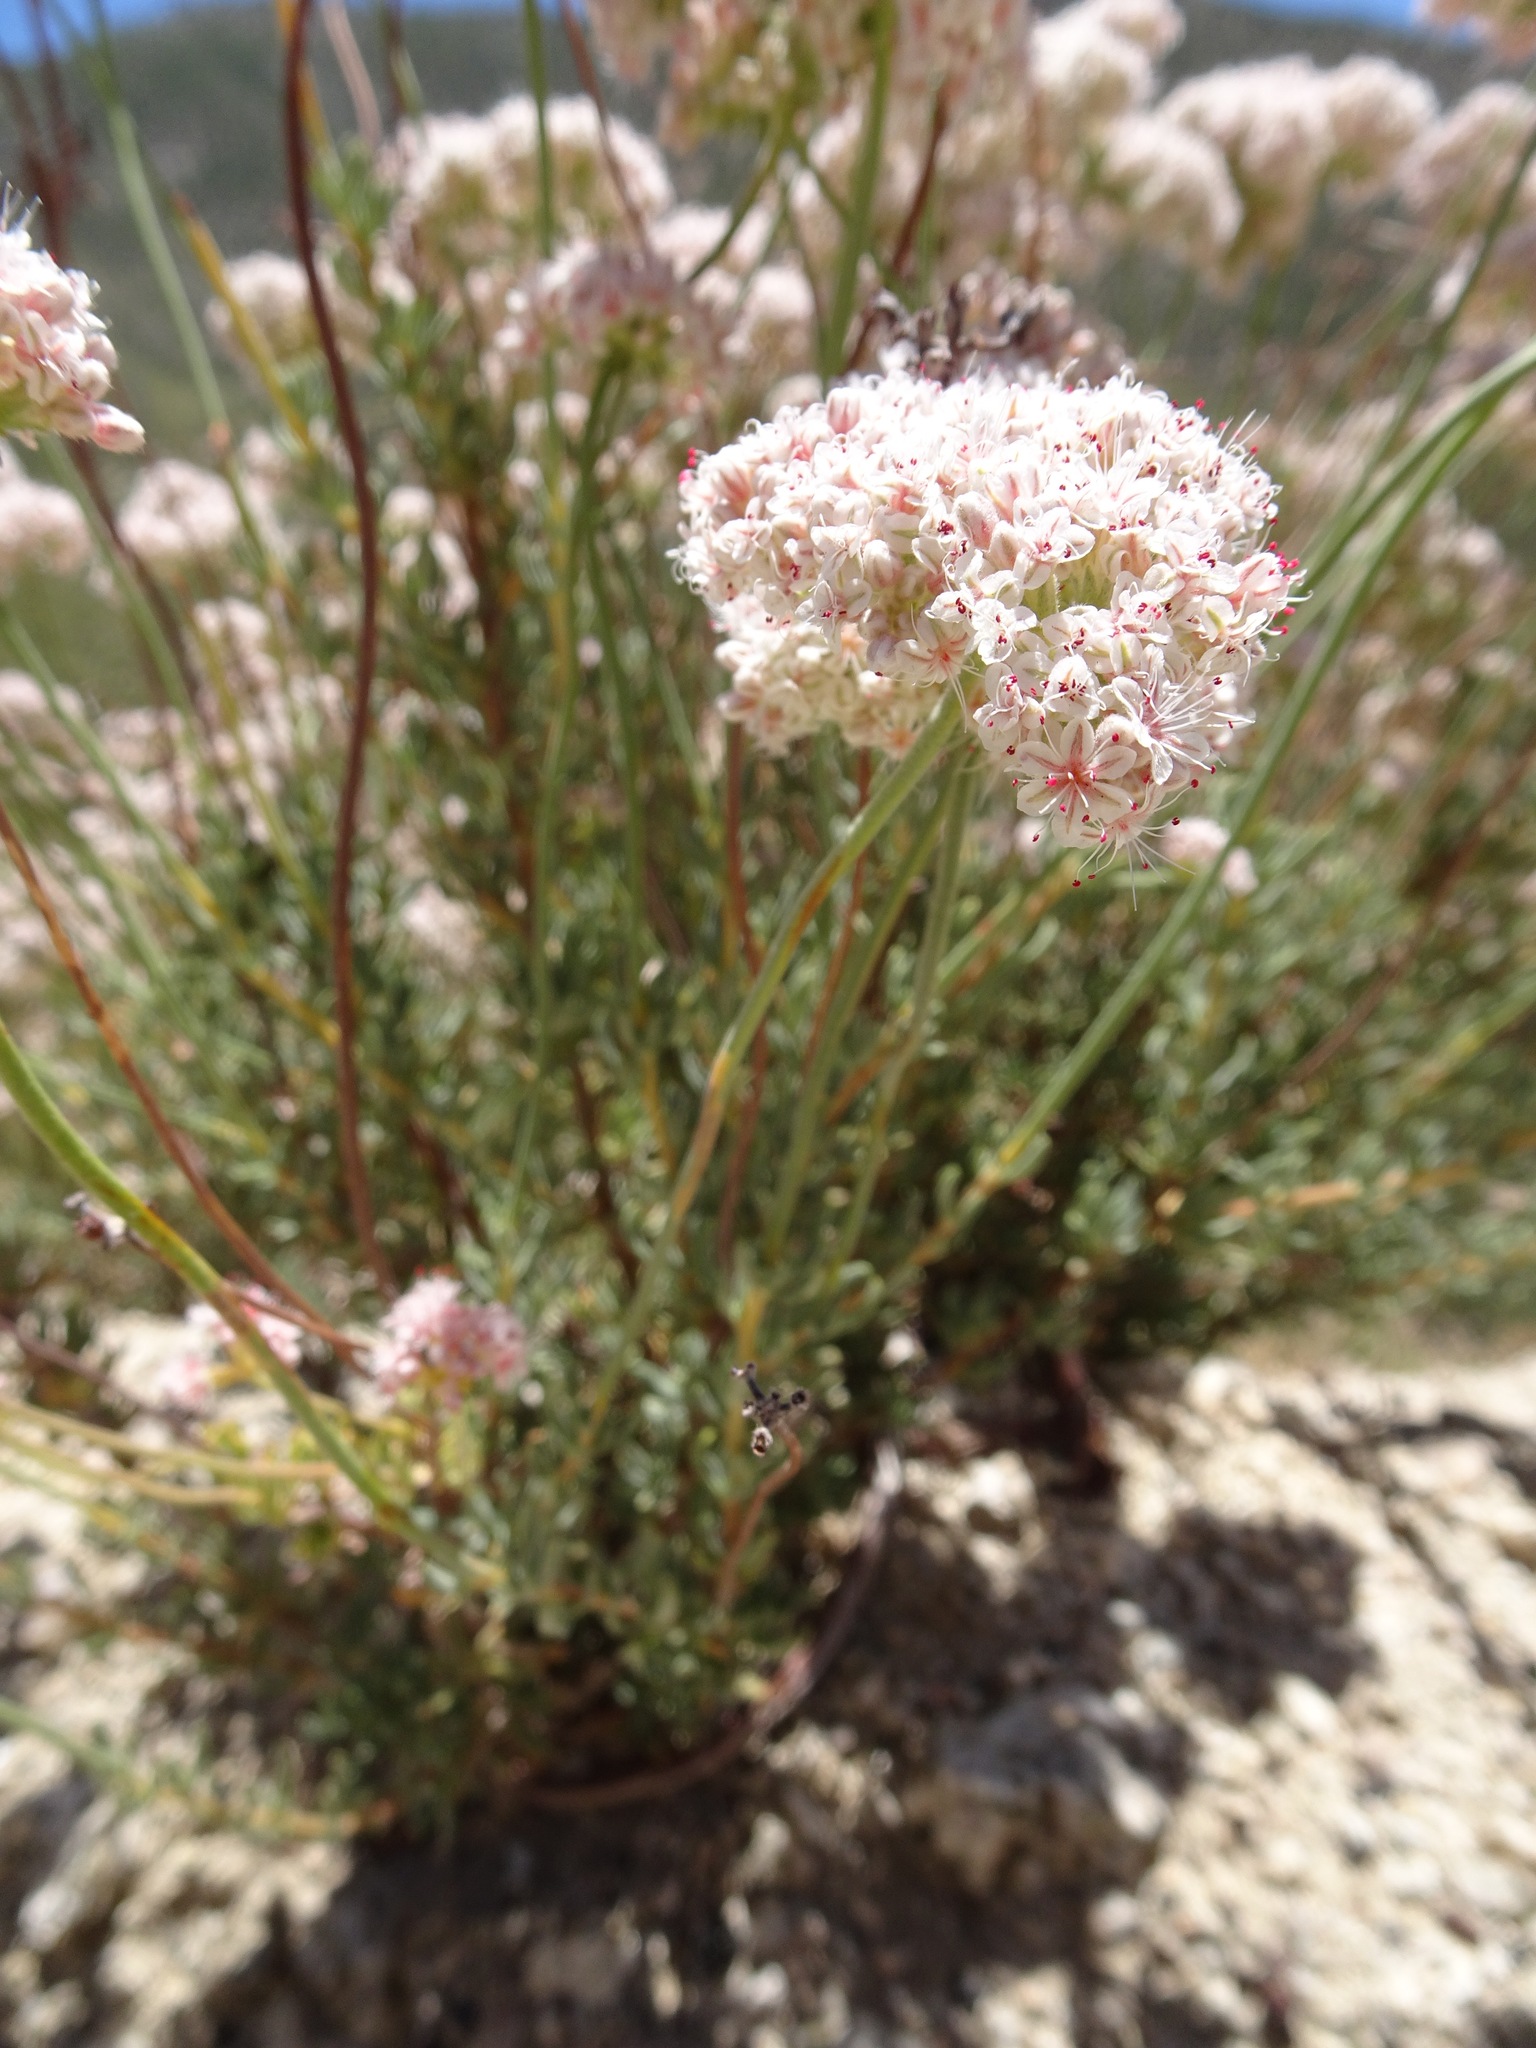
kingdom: Plantae
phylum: Tracheophyta
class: Magnoliopsida
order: Caryophyllales
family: Polygonaceae
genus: Eriogonum
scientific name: Eriogonum fasciculatum
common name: California wild buckwheat
